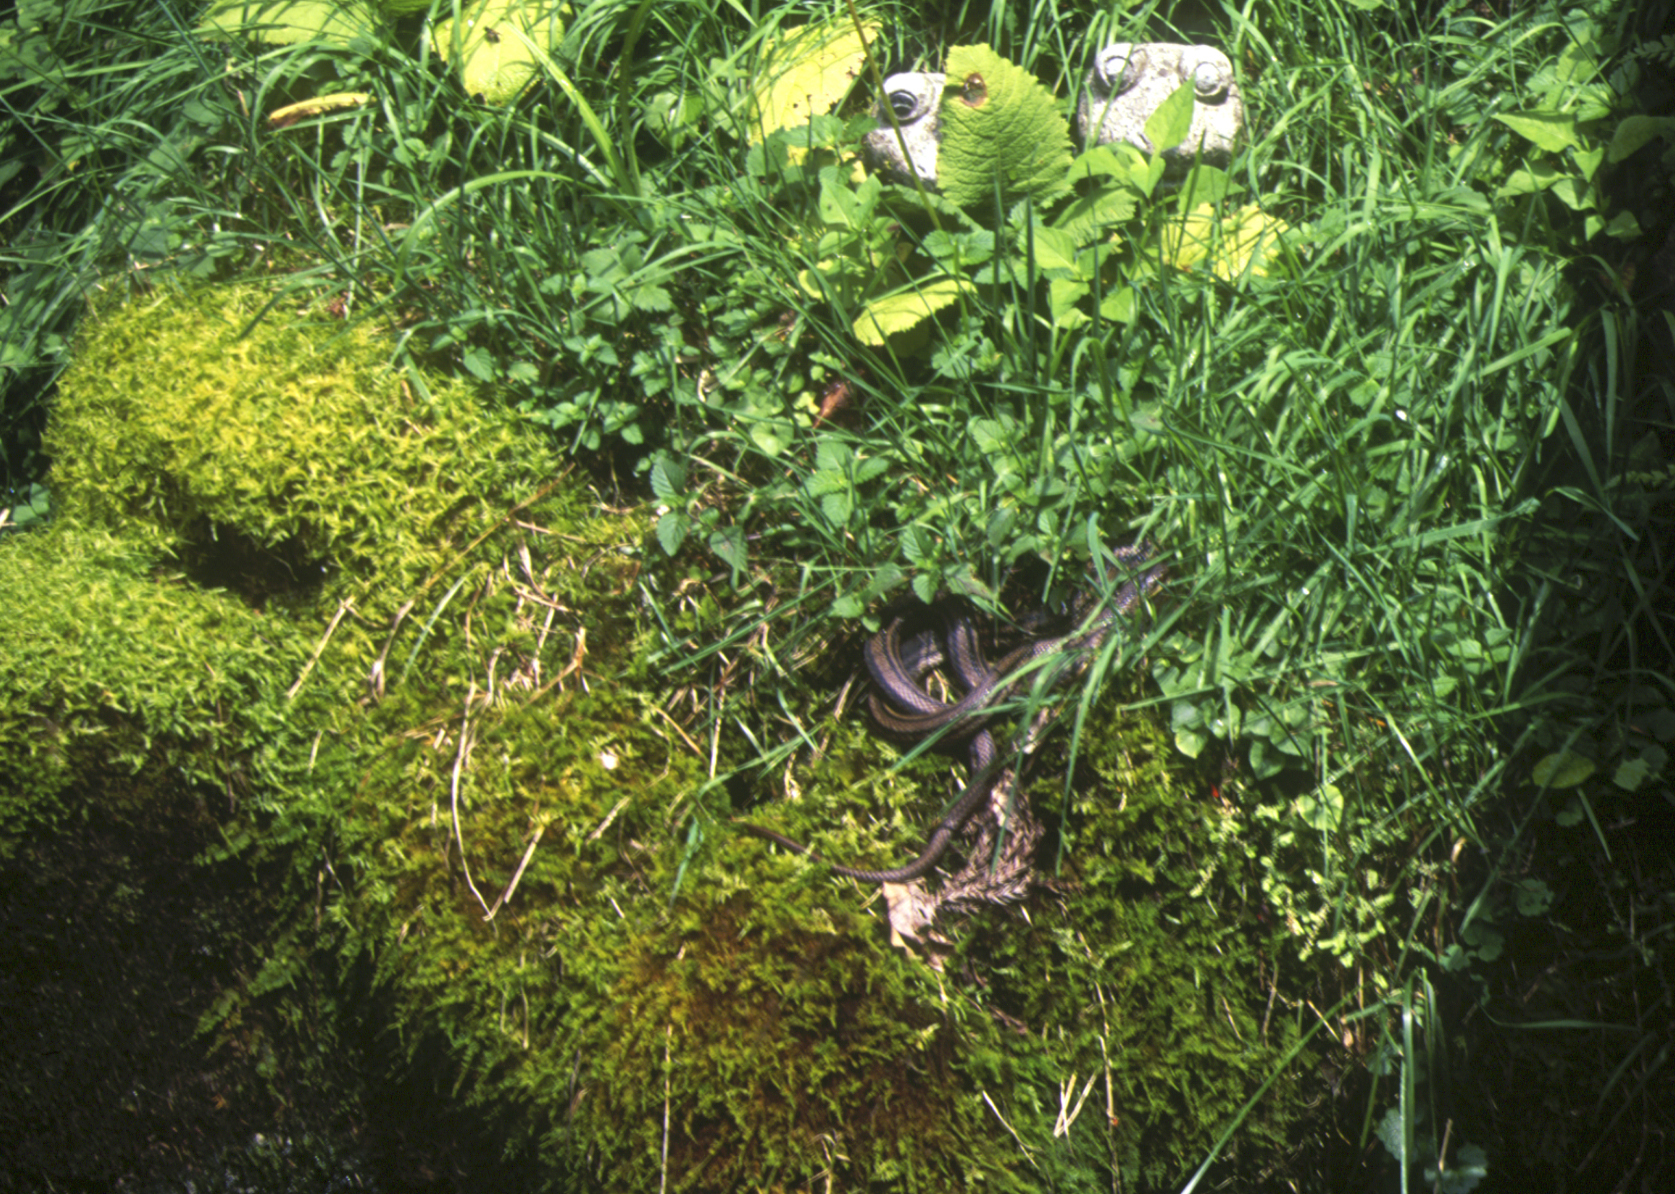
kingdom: Animalia
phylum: Chordata
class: Squamata
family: Colubridae
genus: Elaphe
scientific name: Elaphe quadrivirgata
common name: Japanese four-lined ratsnake
